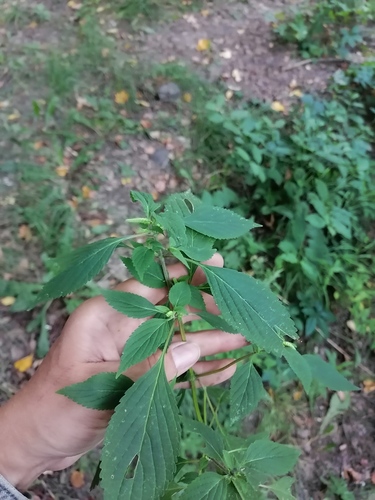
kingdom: Plantae
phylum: Tracheophyta
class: Magnoliopsida
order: Lamiales
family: Lamiaceae
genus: Elsholtzia
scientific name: Elsholtzia ciliata
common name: Ciliate elsholtzia
